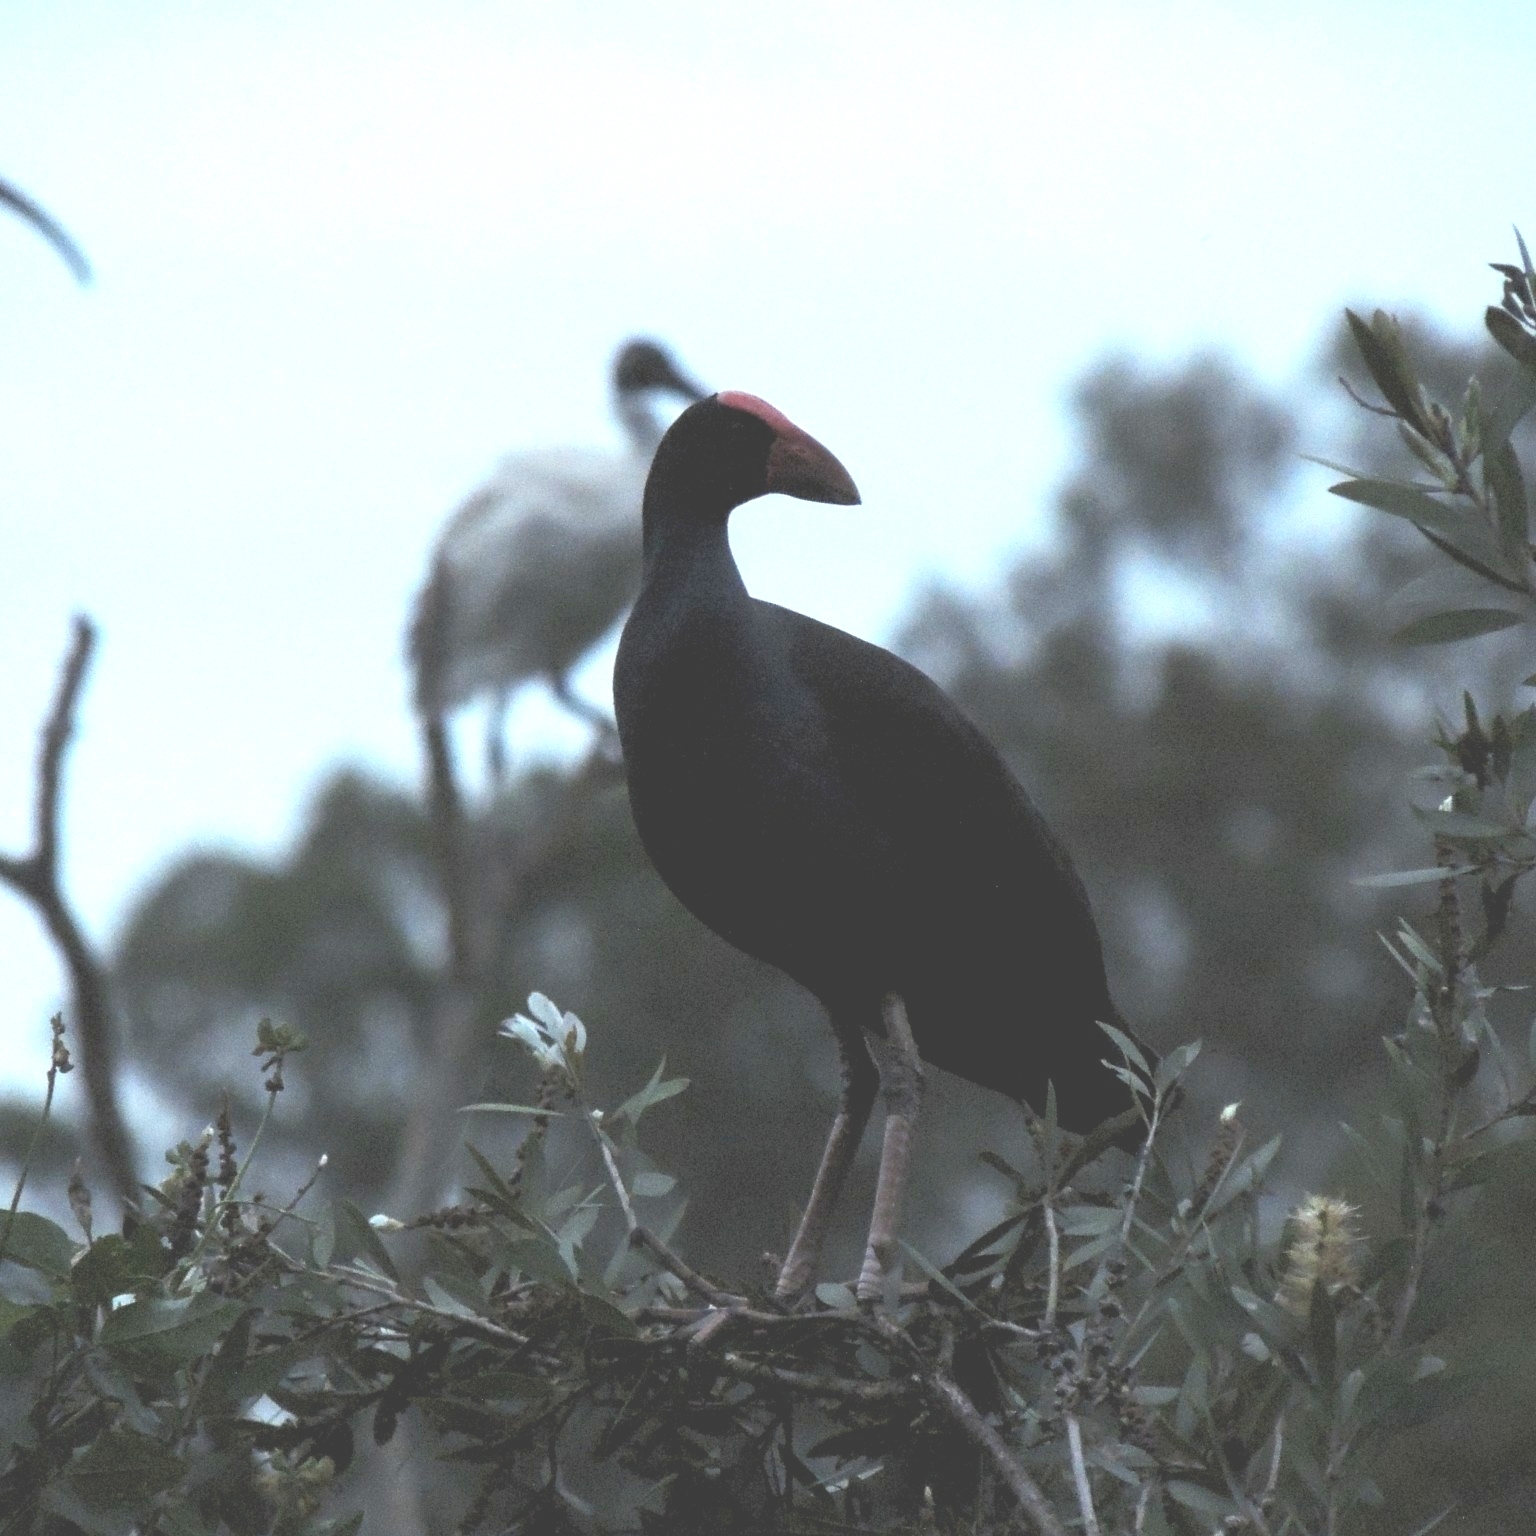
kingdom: Animalia
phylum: Chordata
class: Aves
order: Gruiformes
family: Rallidae
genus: Porphyrio
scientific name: Porphyrio melanotus
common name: Australasian swamphen
